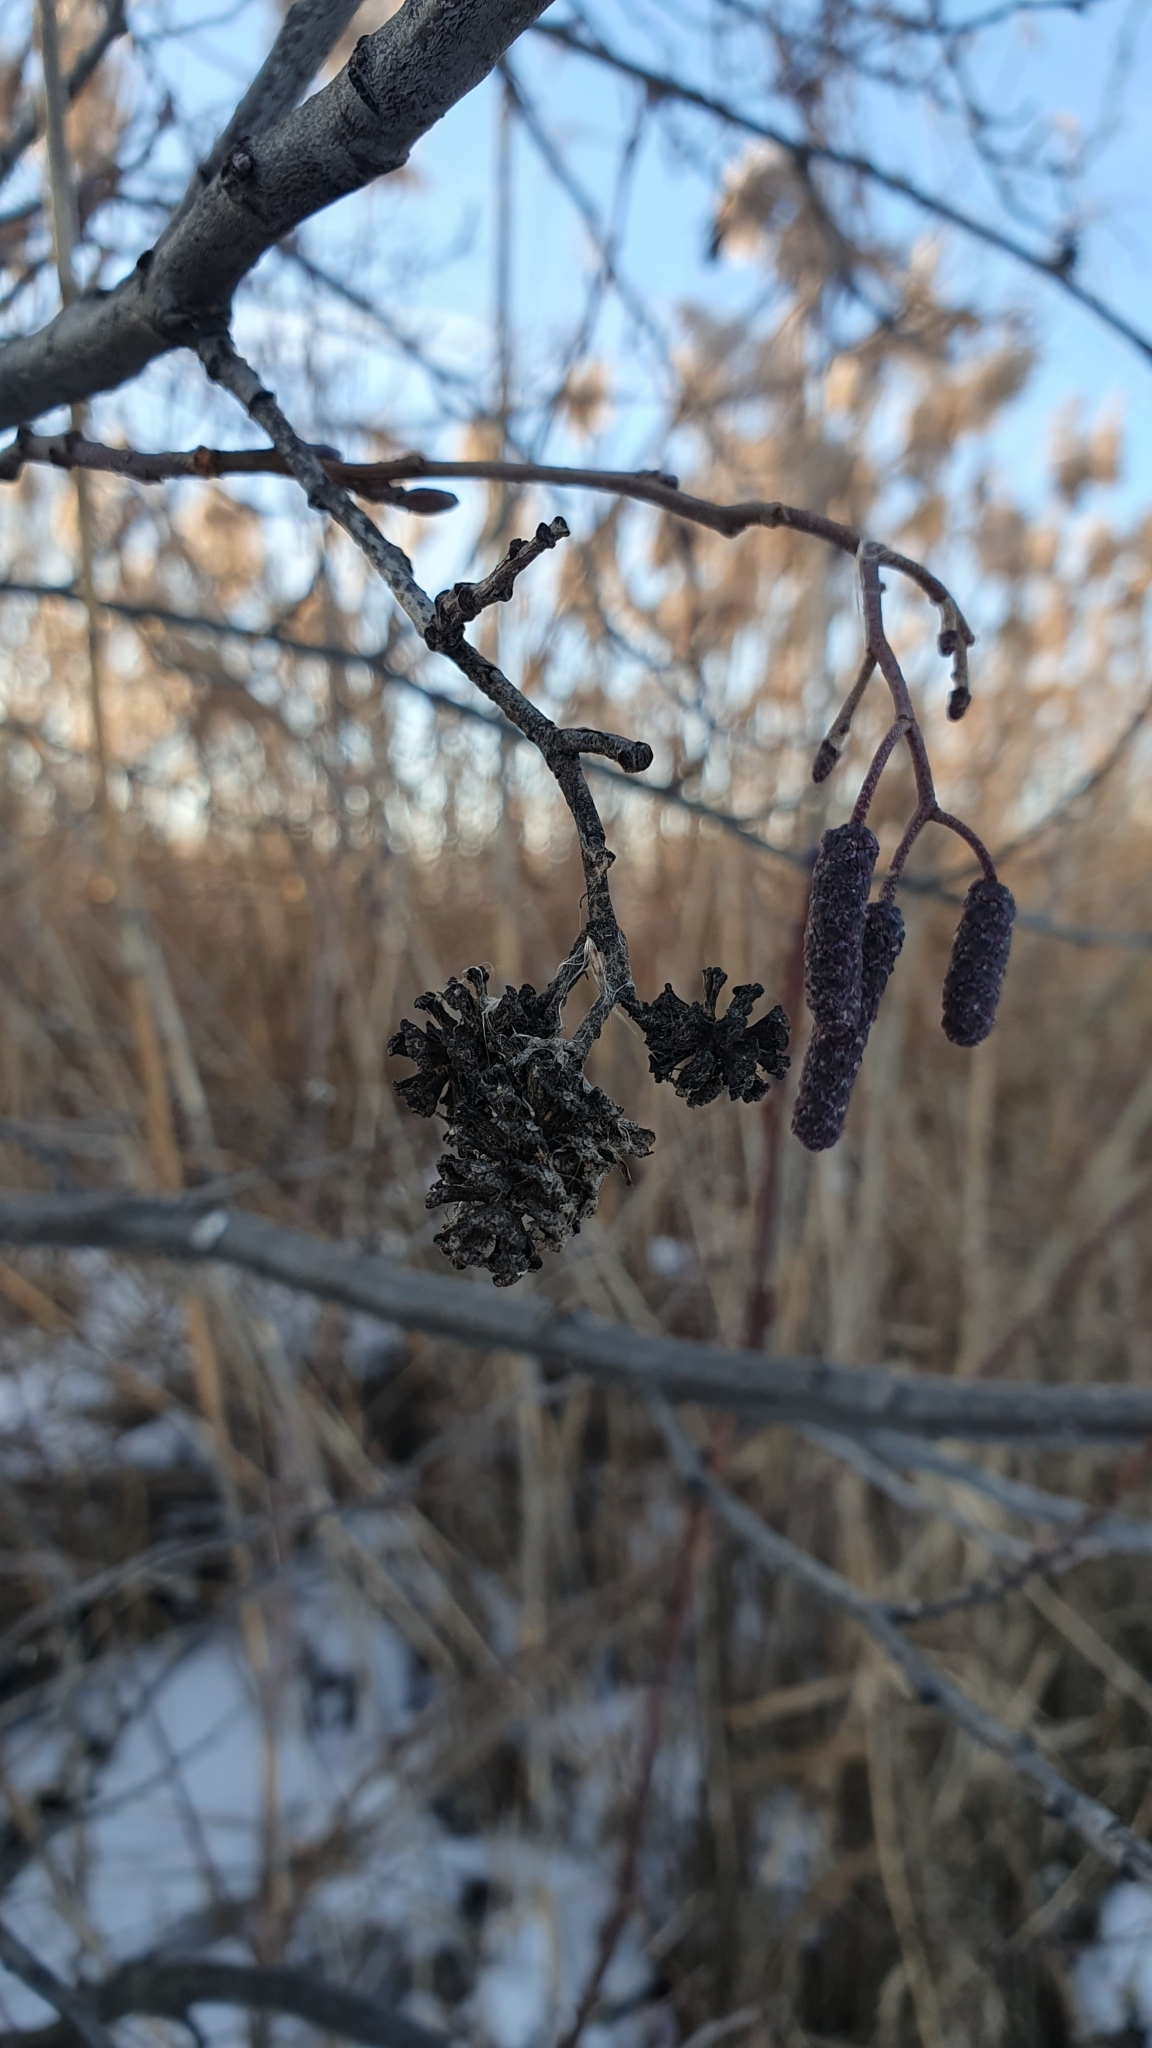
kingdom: Plantae
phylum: Tracheophyta
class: Magnoliopsida
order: Fagales
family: Betulaceae
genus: Alnus
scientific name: Alnus glutinosa
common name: Black alder
